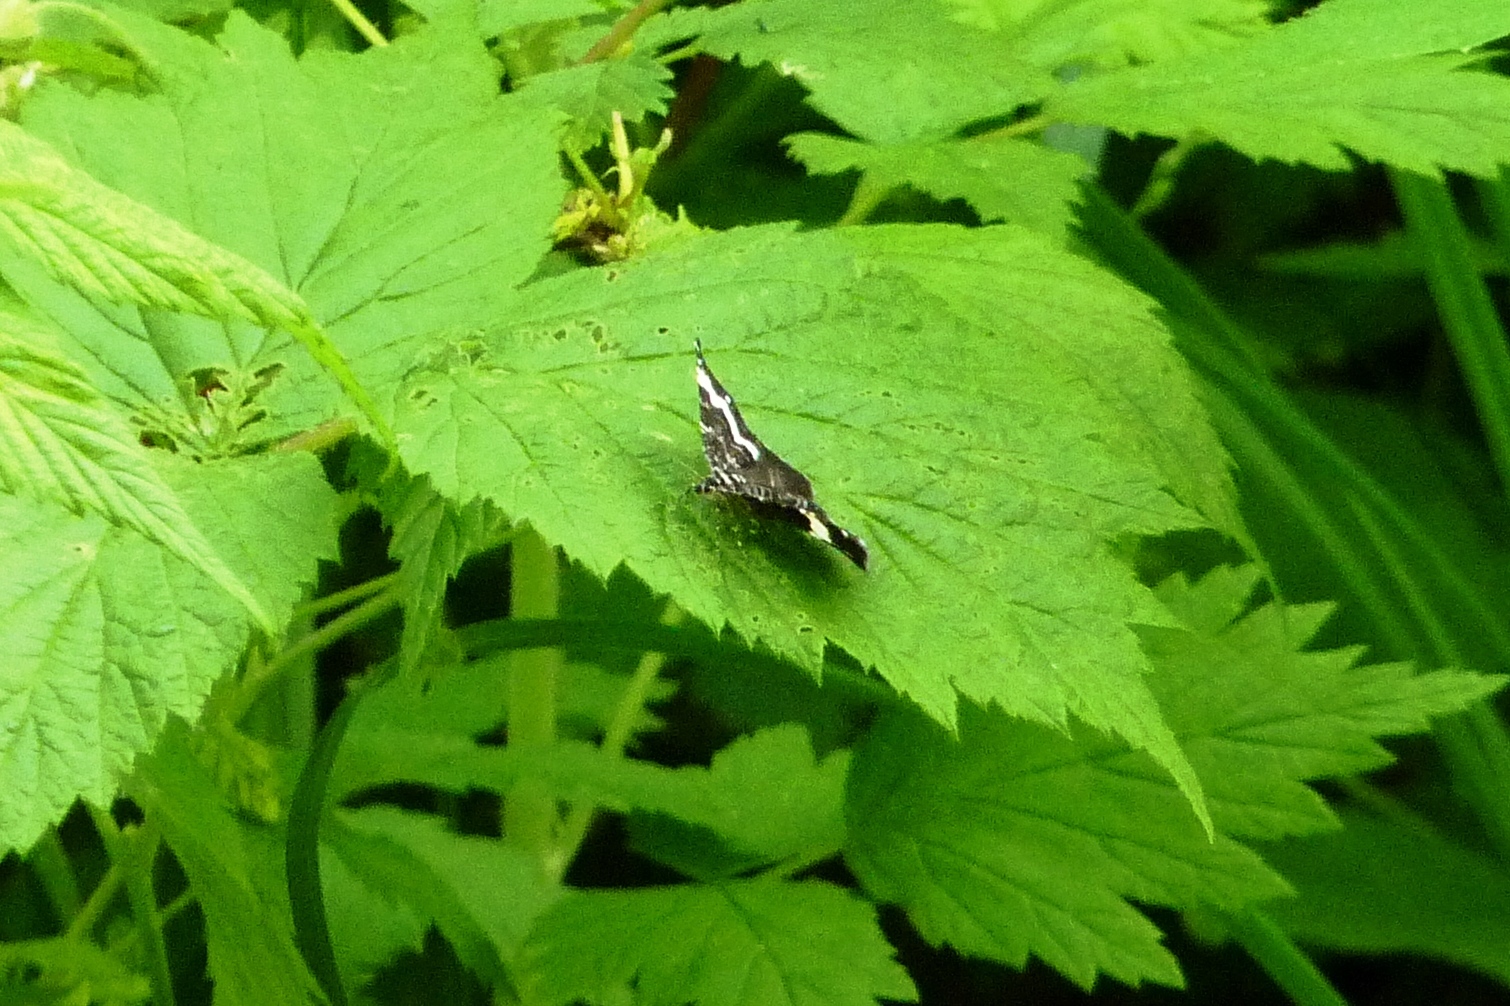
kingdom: Animalia
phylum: Arthropoda
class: Insecta
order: Lepidoptera
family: Geometridae
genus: Trichodezia
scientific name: Trichodezia albovittata
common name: White striped black
